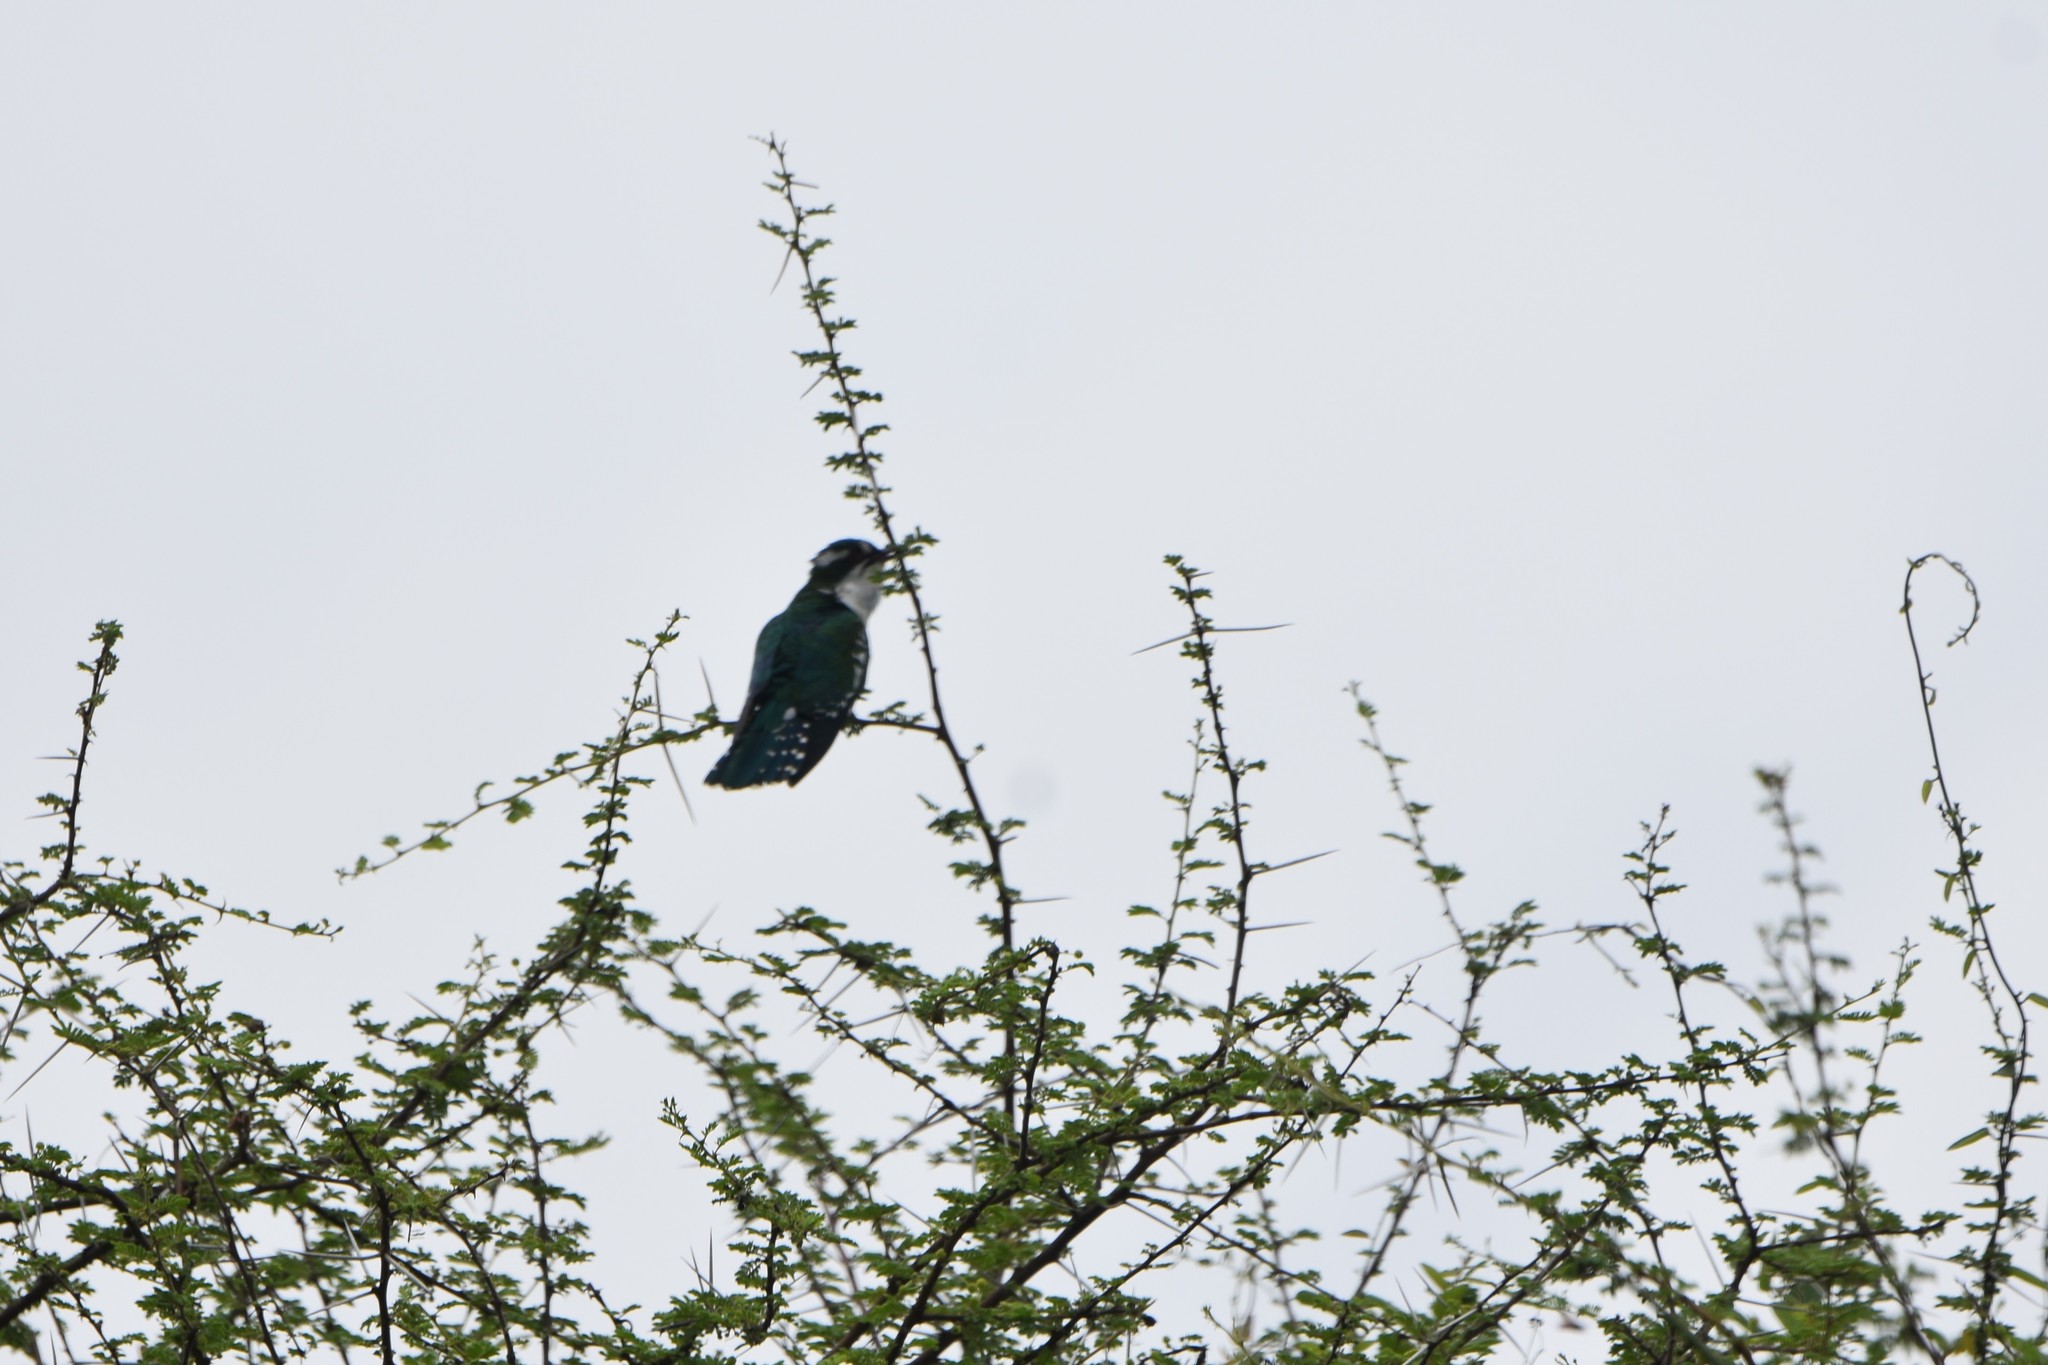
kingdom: Animalia
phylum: Chordata
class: Aves
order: Cuculiformes
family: Cuculidae
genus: Chrysococcyx
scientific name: Chrysococcyx caprius
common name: Diederik cuckoo
